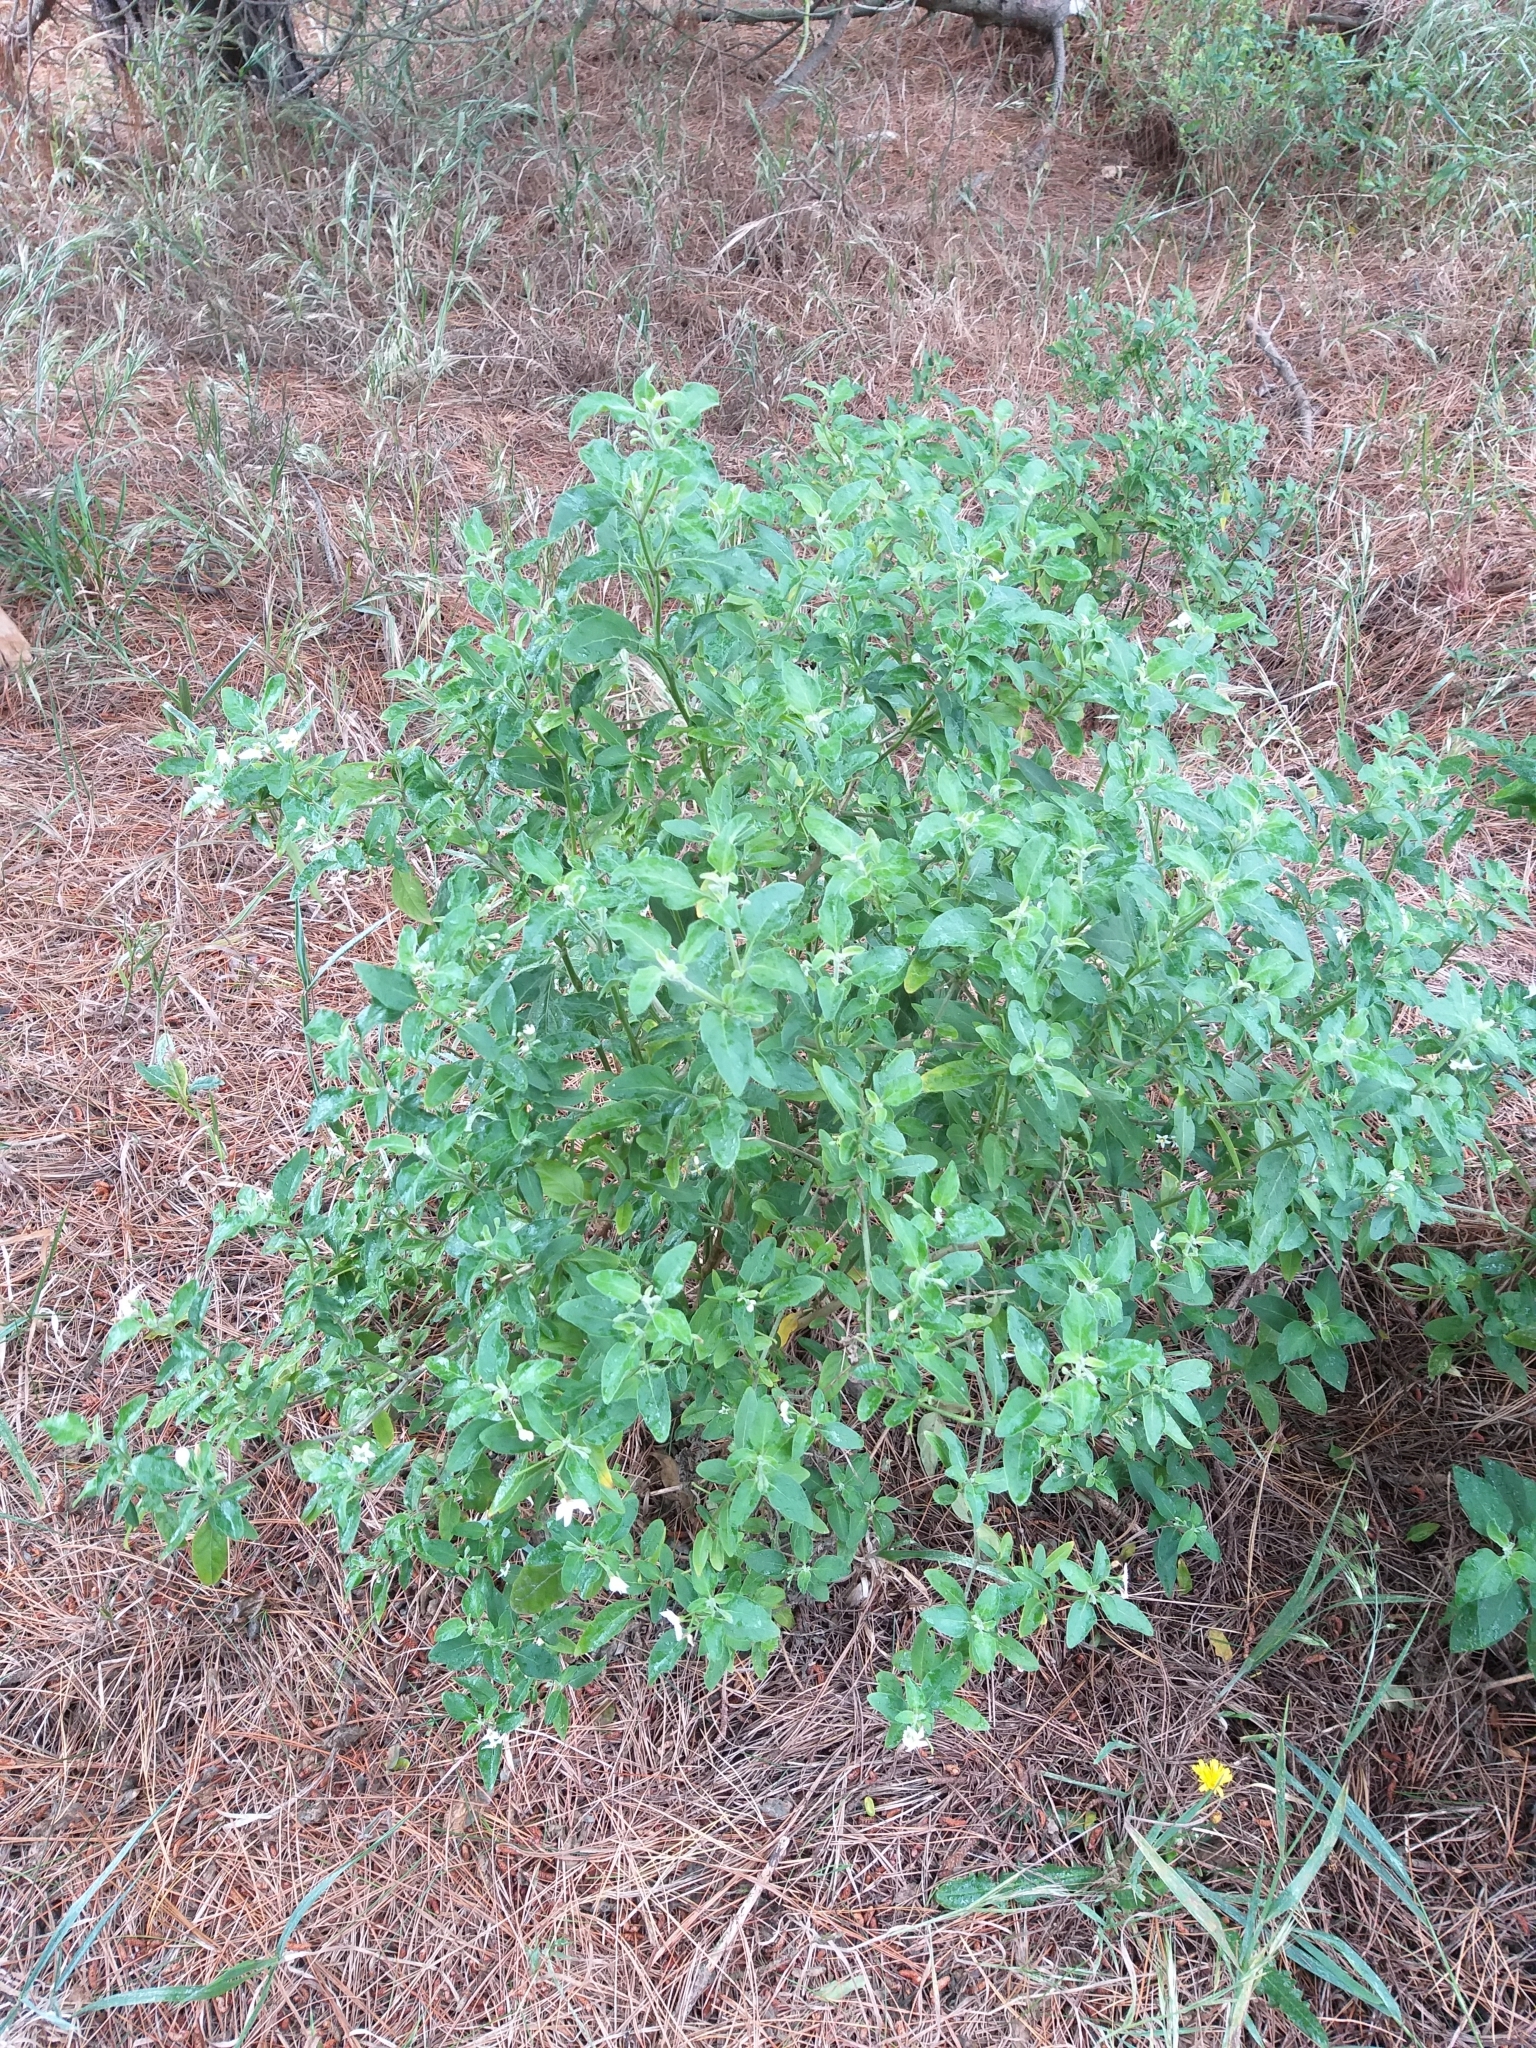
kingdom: Plantae
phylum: Tracheophyta
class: Magnoliopsida
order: Solanales
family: Solanaceae
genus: Solanum
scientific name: Solanum chenopodioides
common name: Tall nightshade
